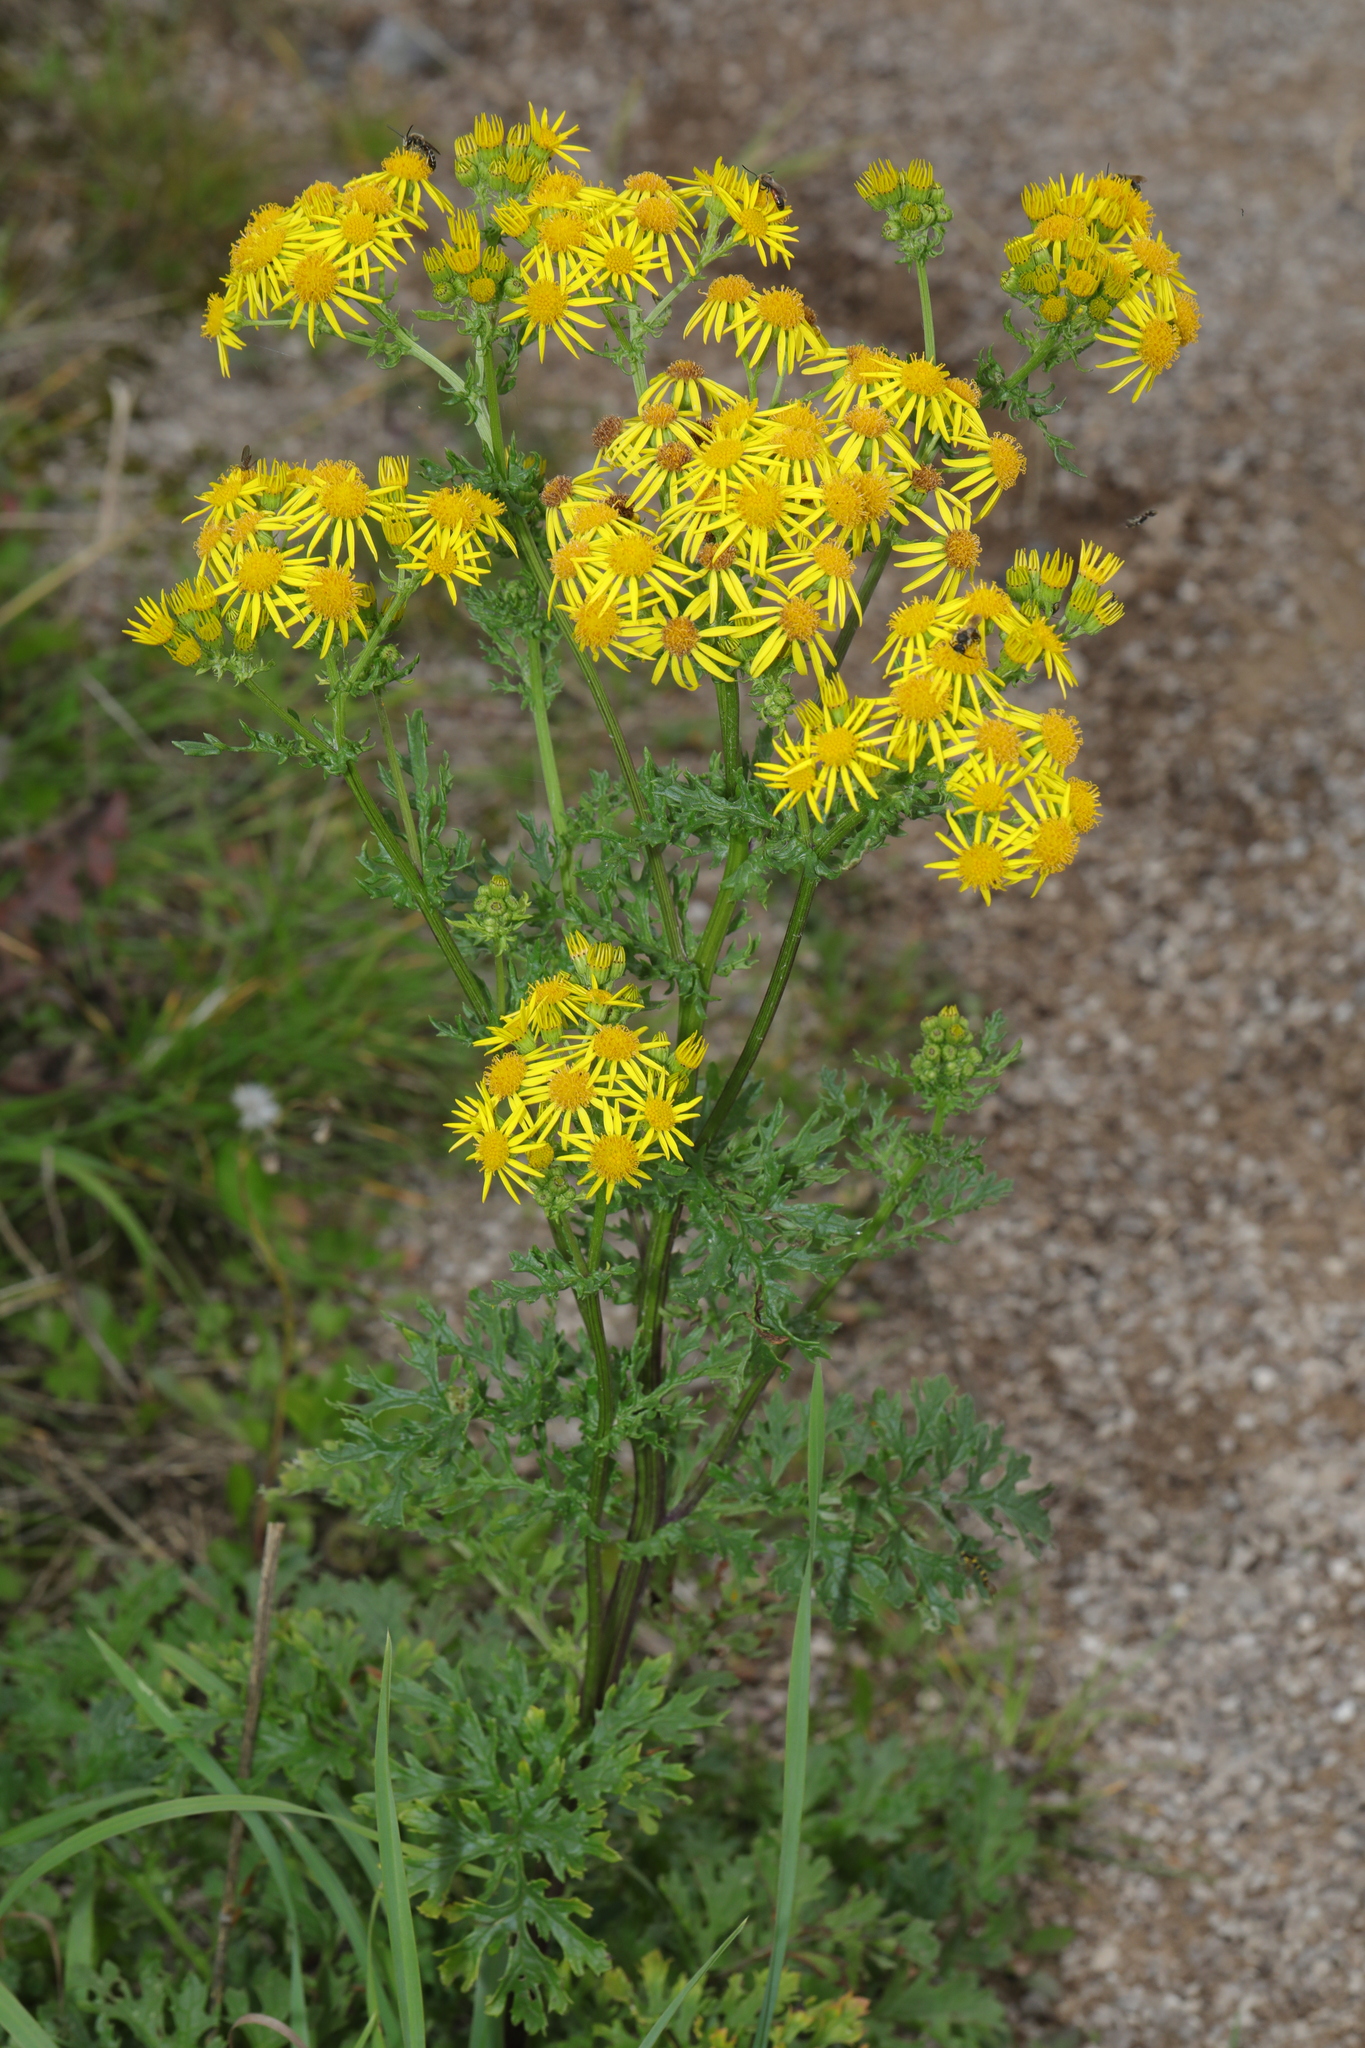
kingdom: Plantae
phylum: Tracheophyta
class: Magnoliopsida
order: Asterales
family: Asteraceae
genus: Jacobaea
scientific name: Jacobaea vulgaris
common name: Stinking willie
